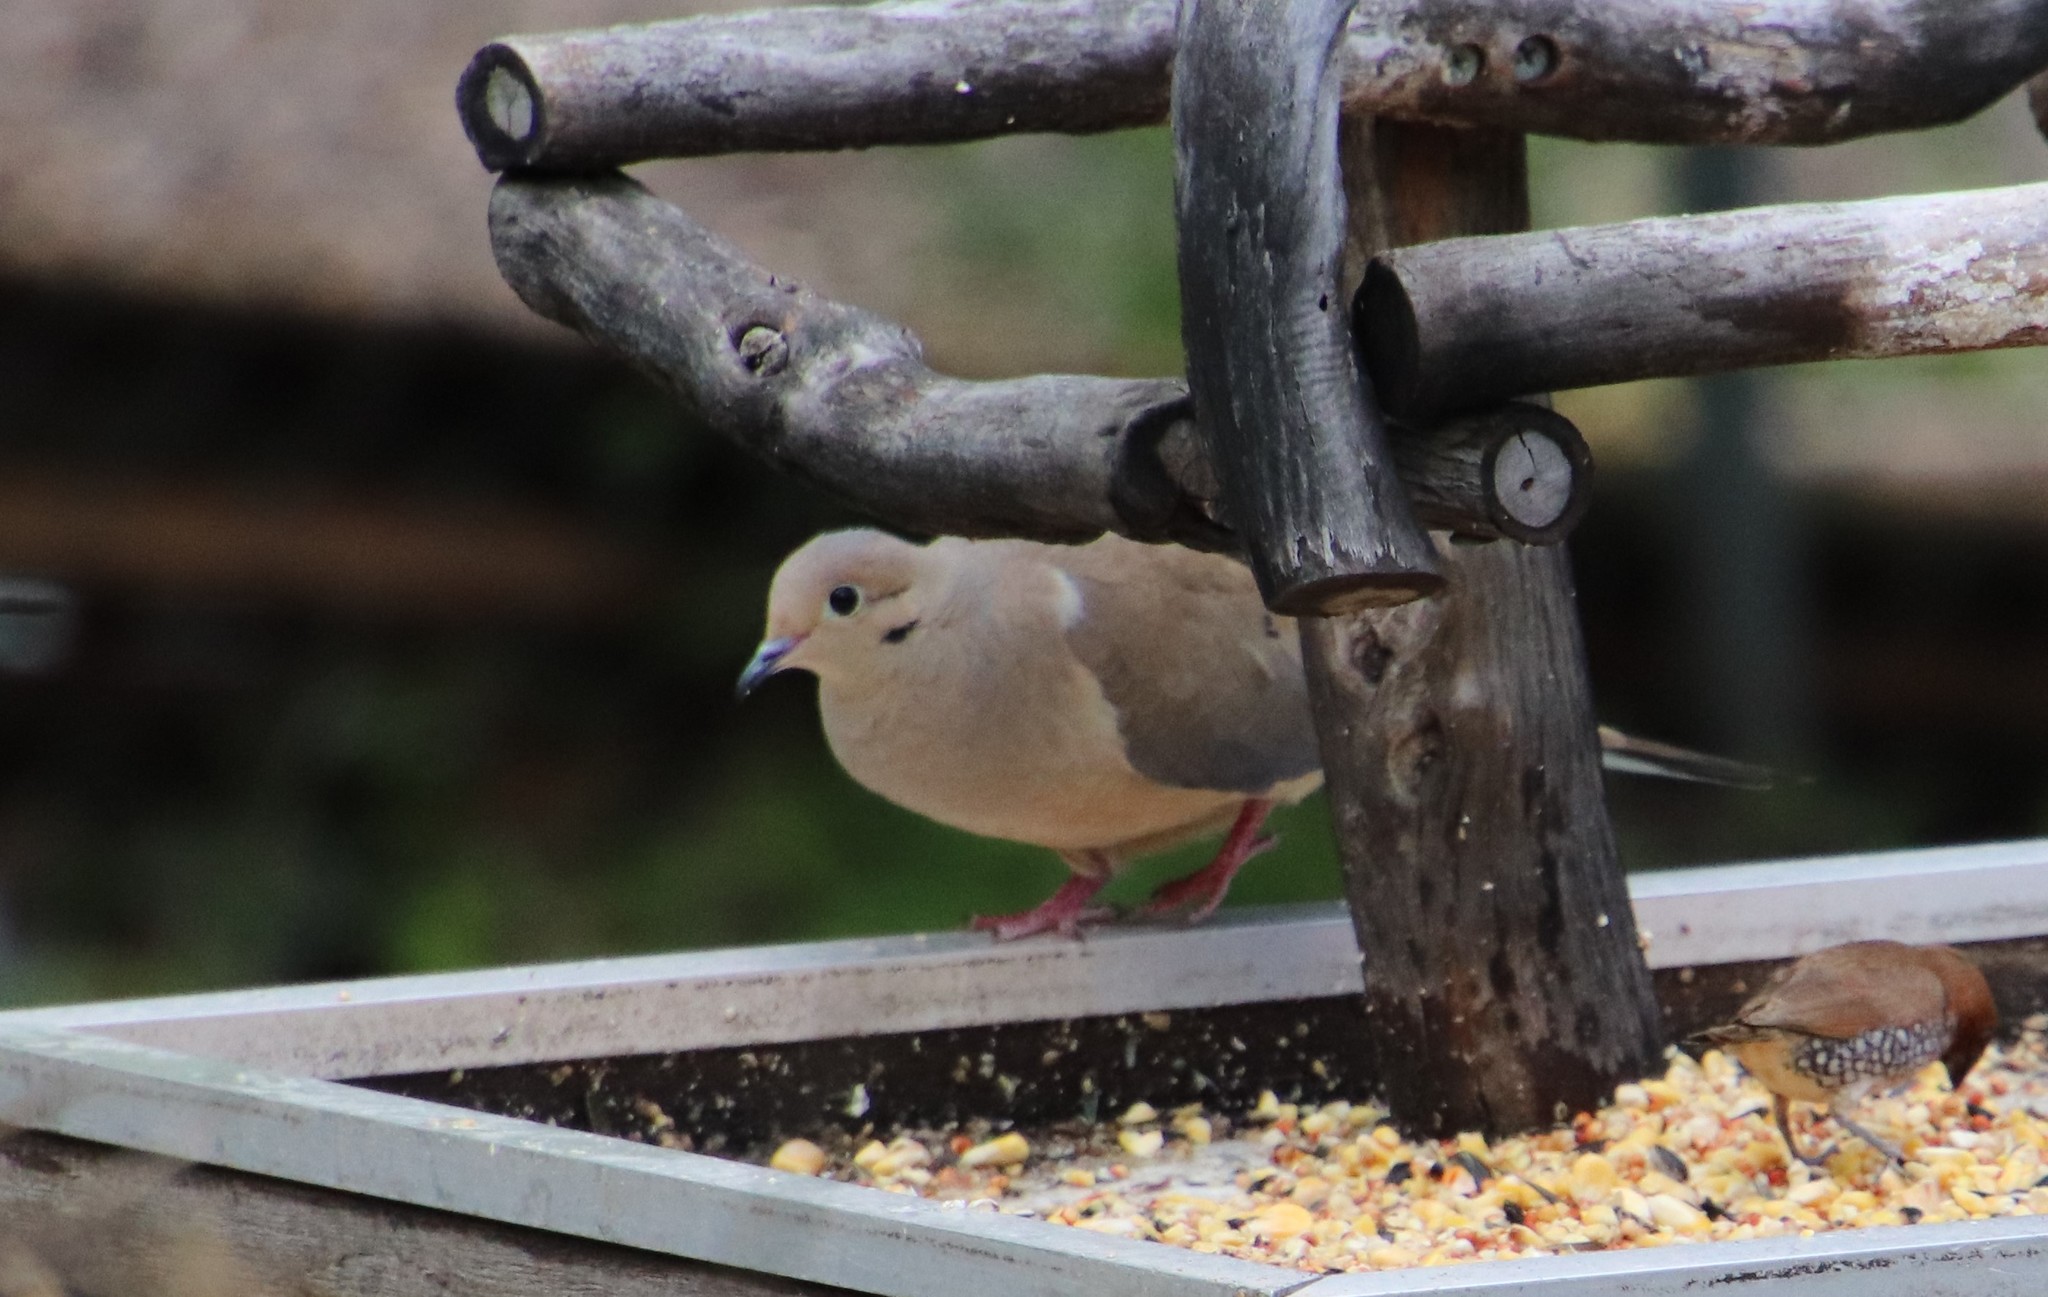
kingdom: Animalia
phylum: Chordata
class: Aves
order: Columbiformes
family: Columbidae
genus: Zenaida
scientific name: Zenaida macroura
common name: Mourning dove
